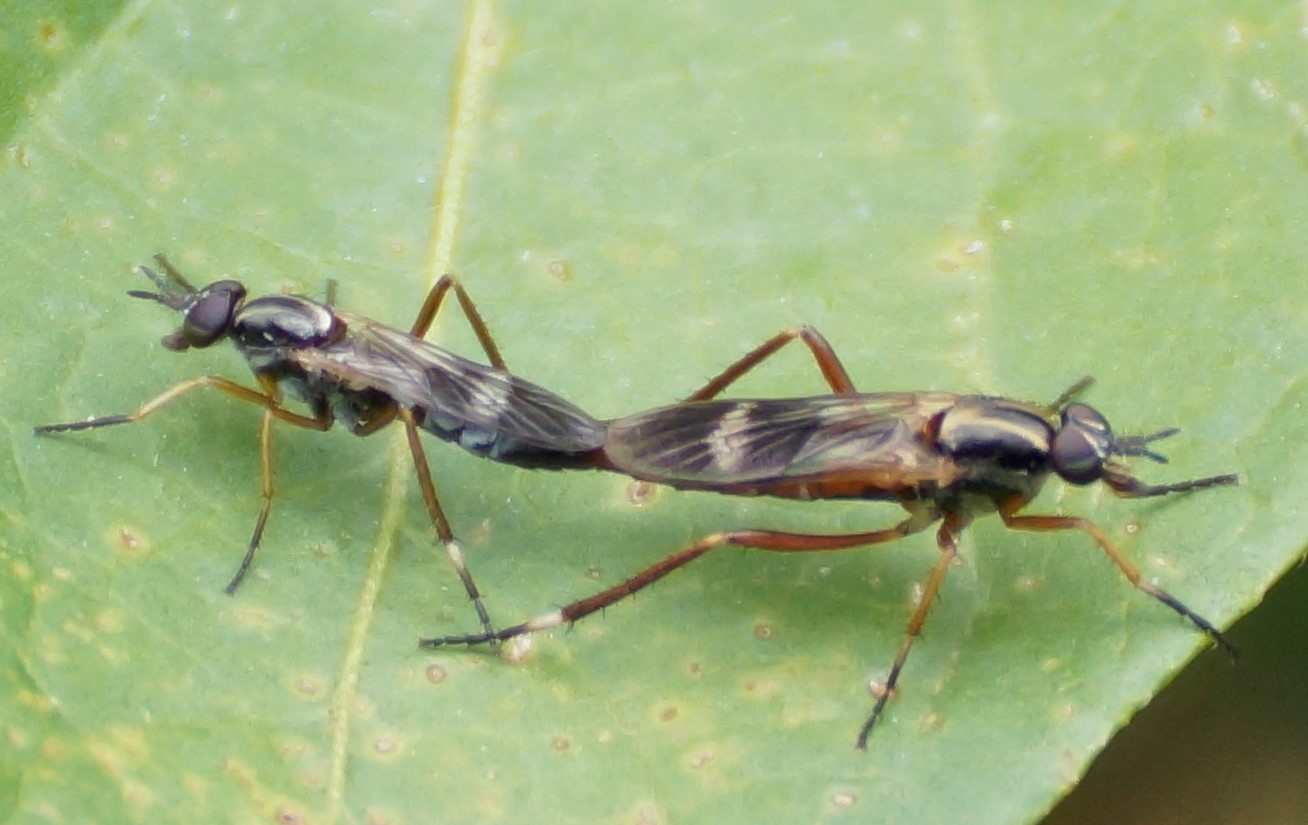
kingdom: Animalia
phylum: Arthropoda
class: Insecta
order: Diptera
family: Therevidae
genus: Evansomyia
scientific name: Evansomyia
